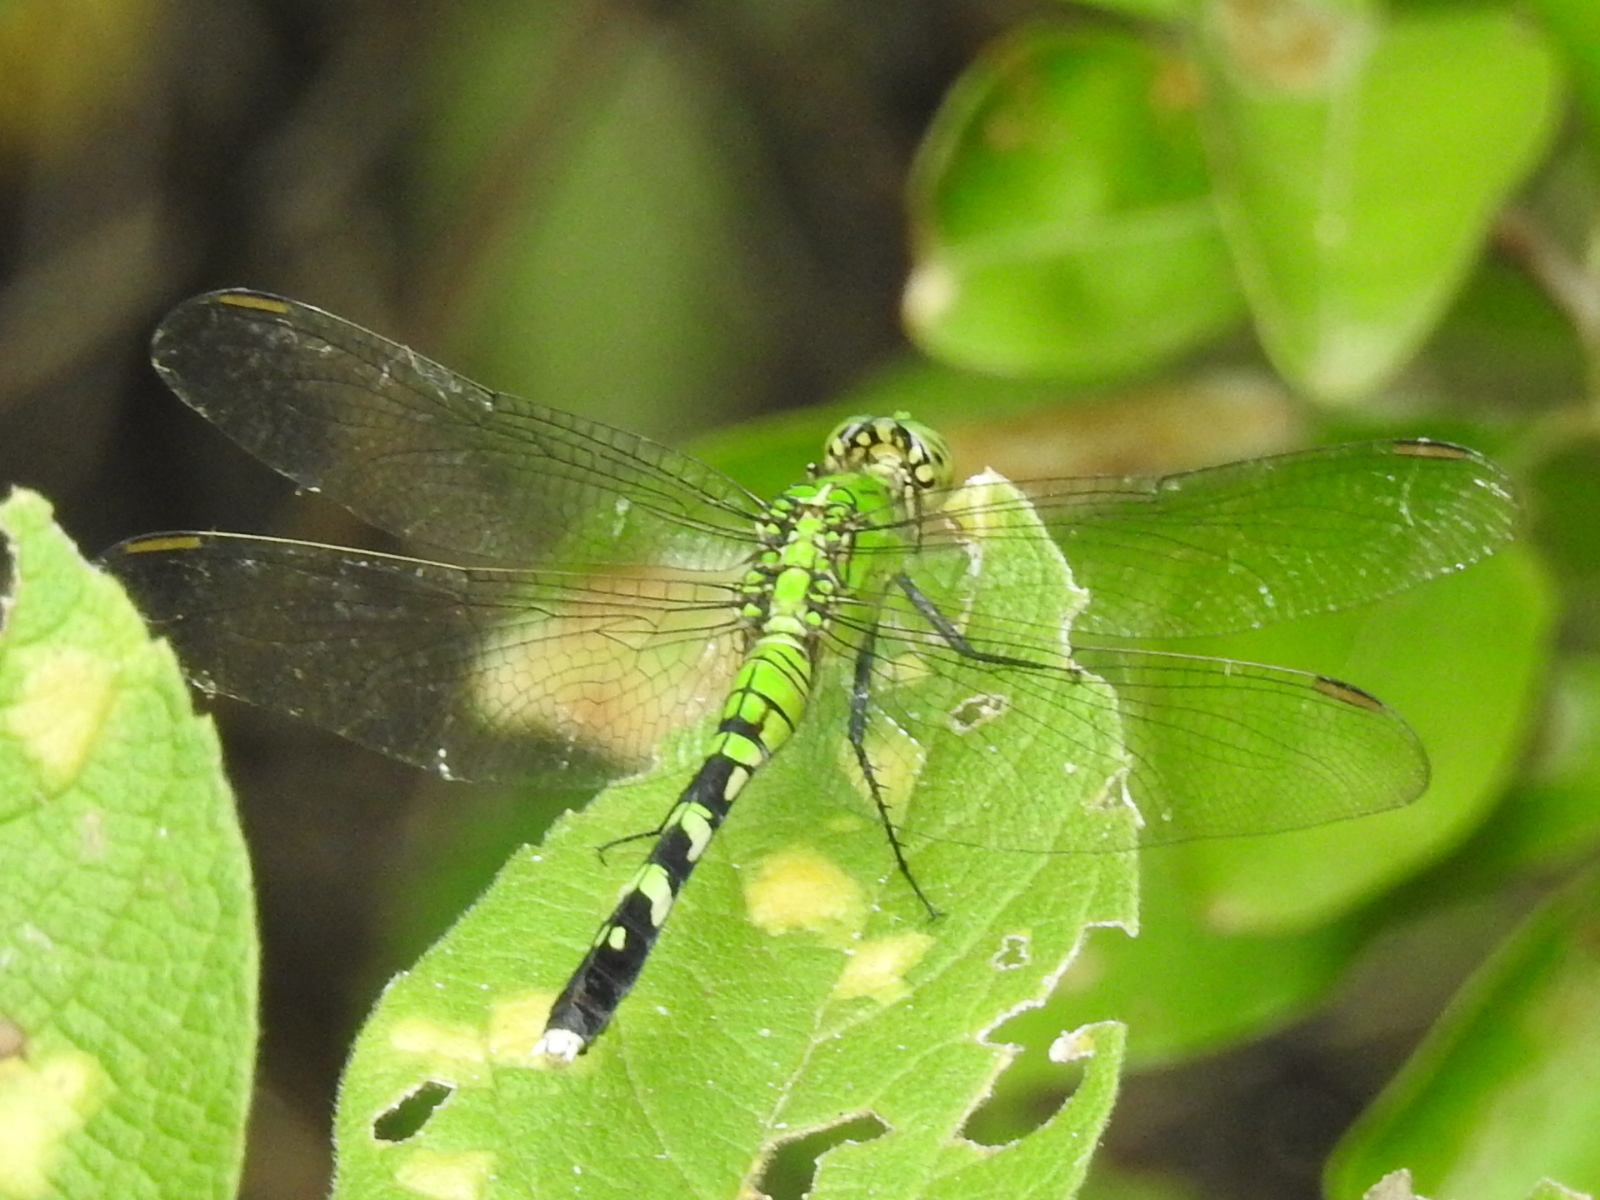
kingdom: Animalia
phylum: Arthropoda
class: Insecta
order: Odonata
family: Libellulidae
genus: Erythemis
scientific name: Erythemis simplicicollis
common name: Eastern pondhawk
